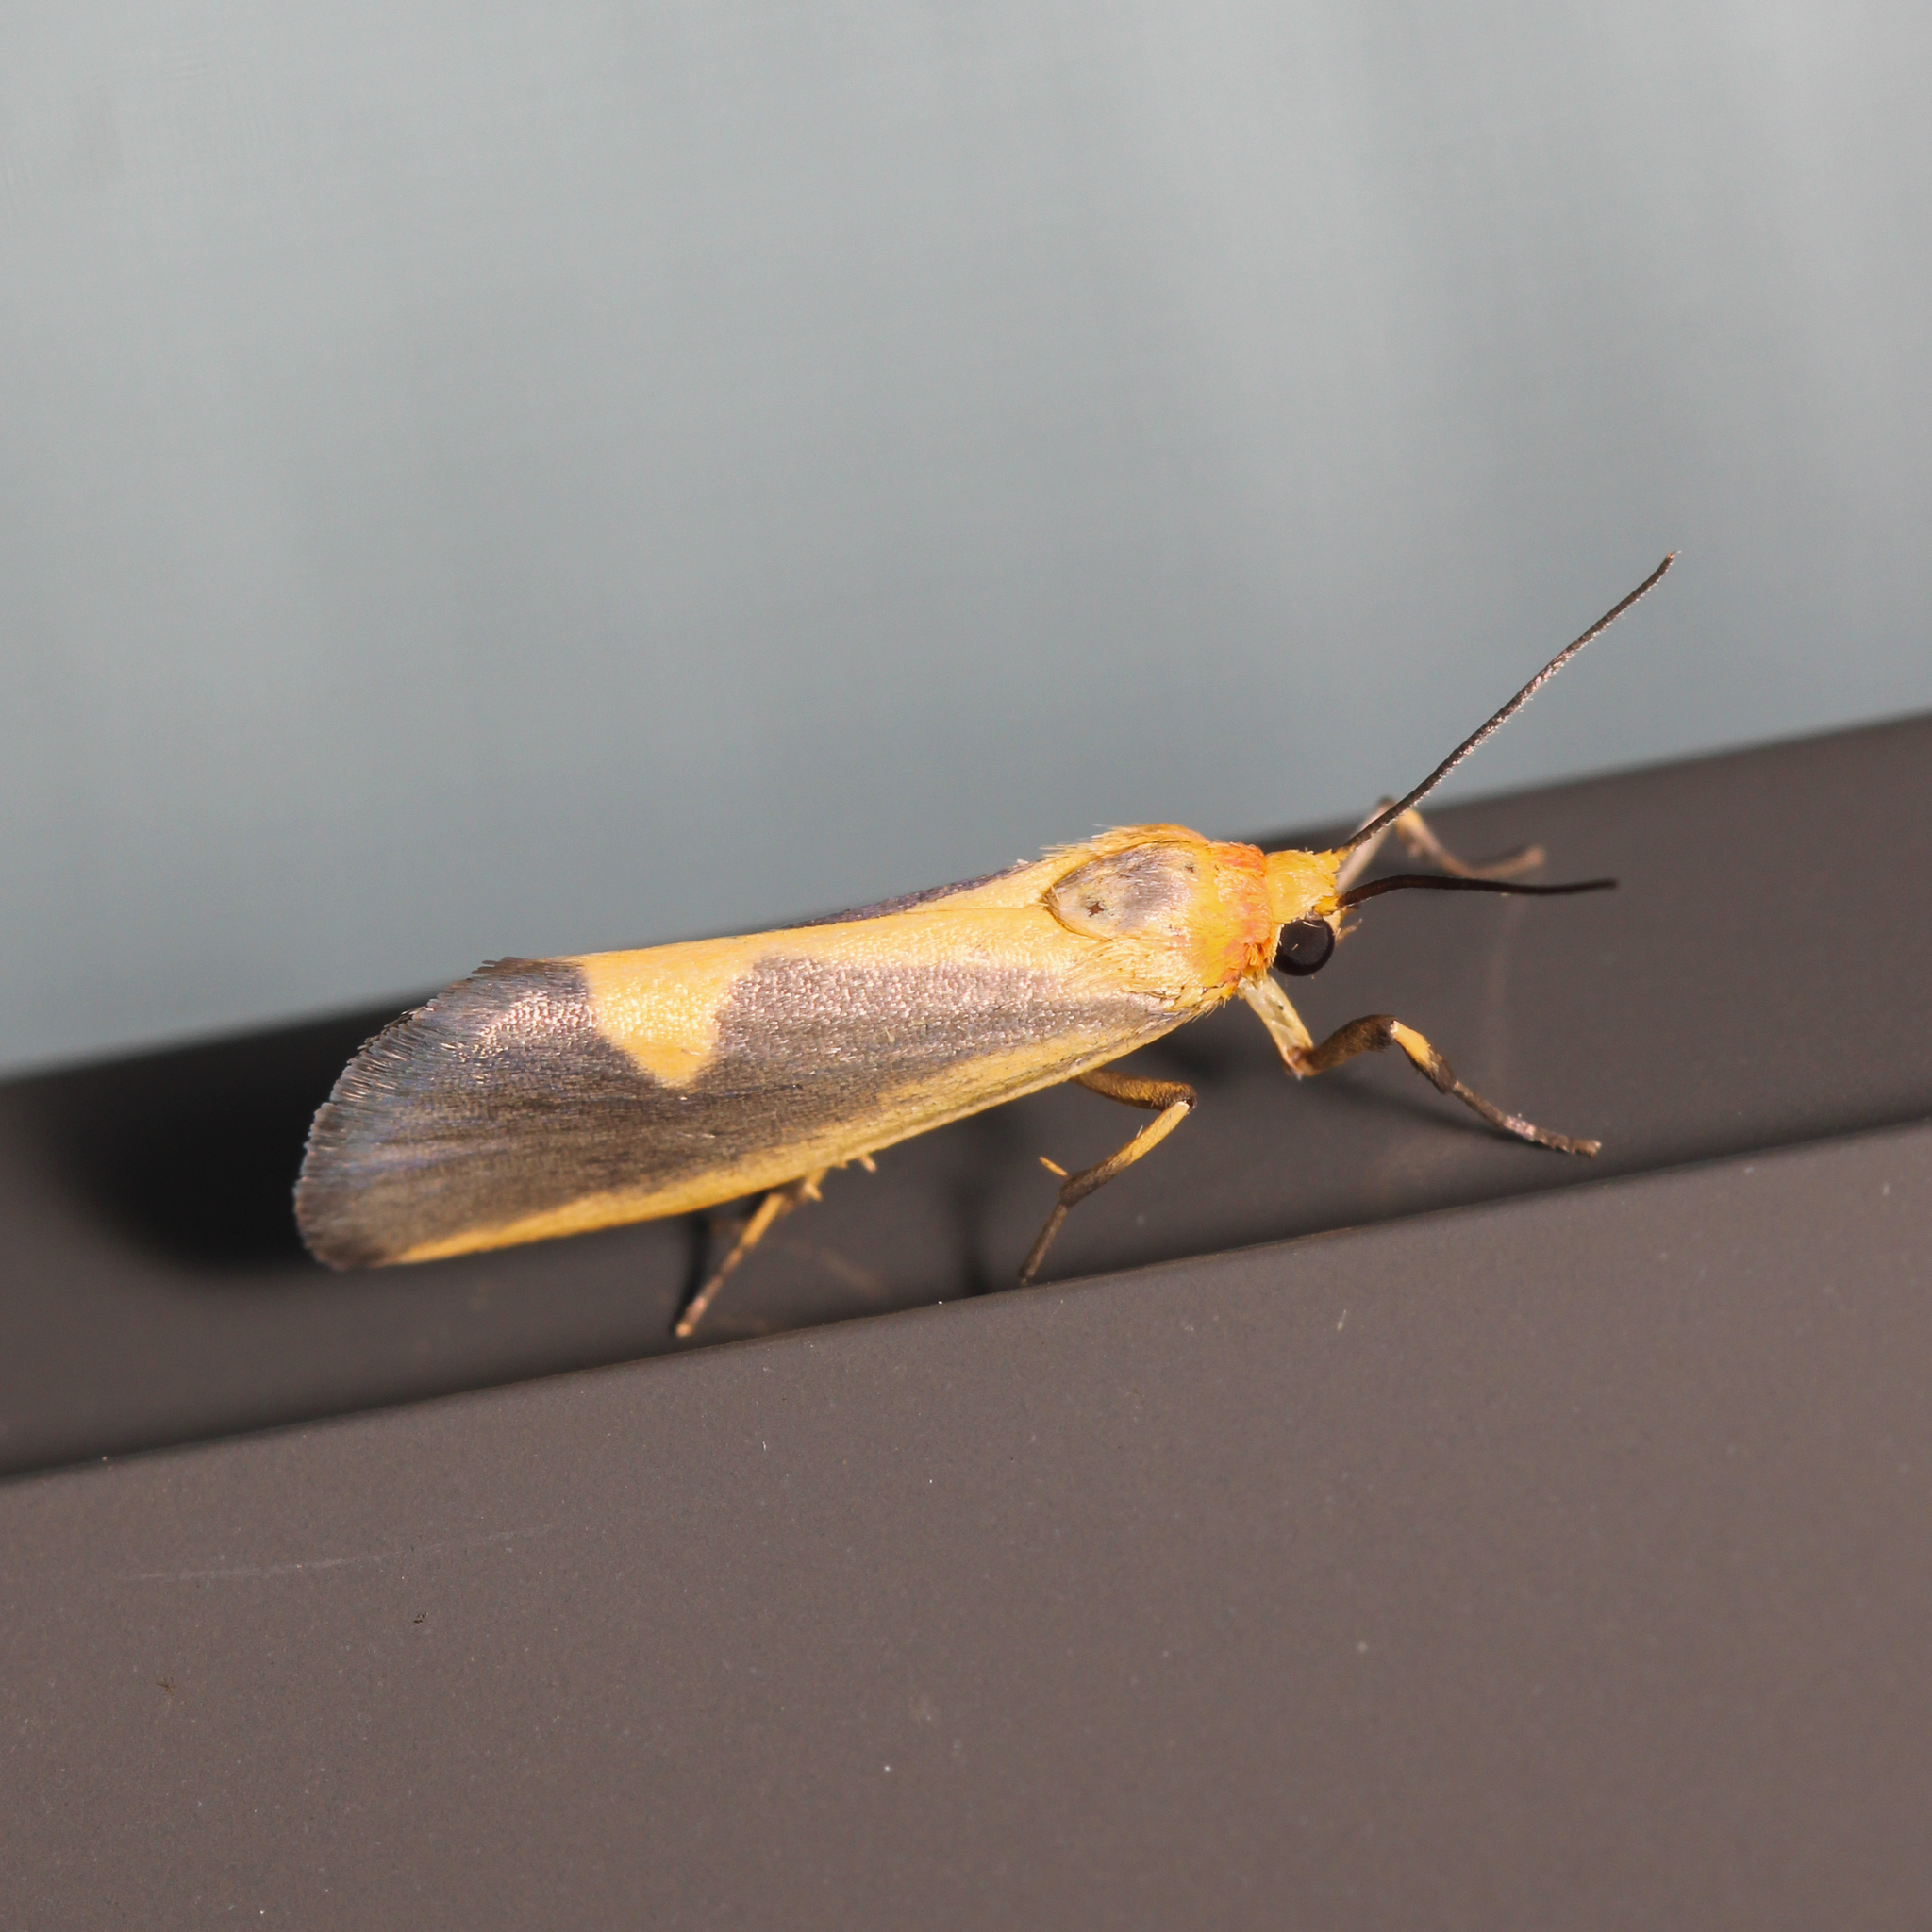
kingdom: Animalia
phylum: Arthropoda
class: Insecta
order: Lepidoptera
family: Erebidae
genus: Cisthene
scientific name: Cisthene plumbea
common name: Lead colored lichen moth
